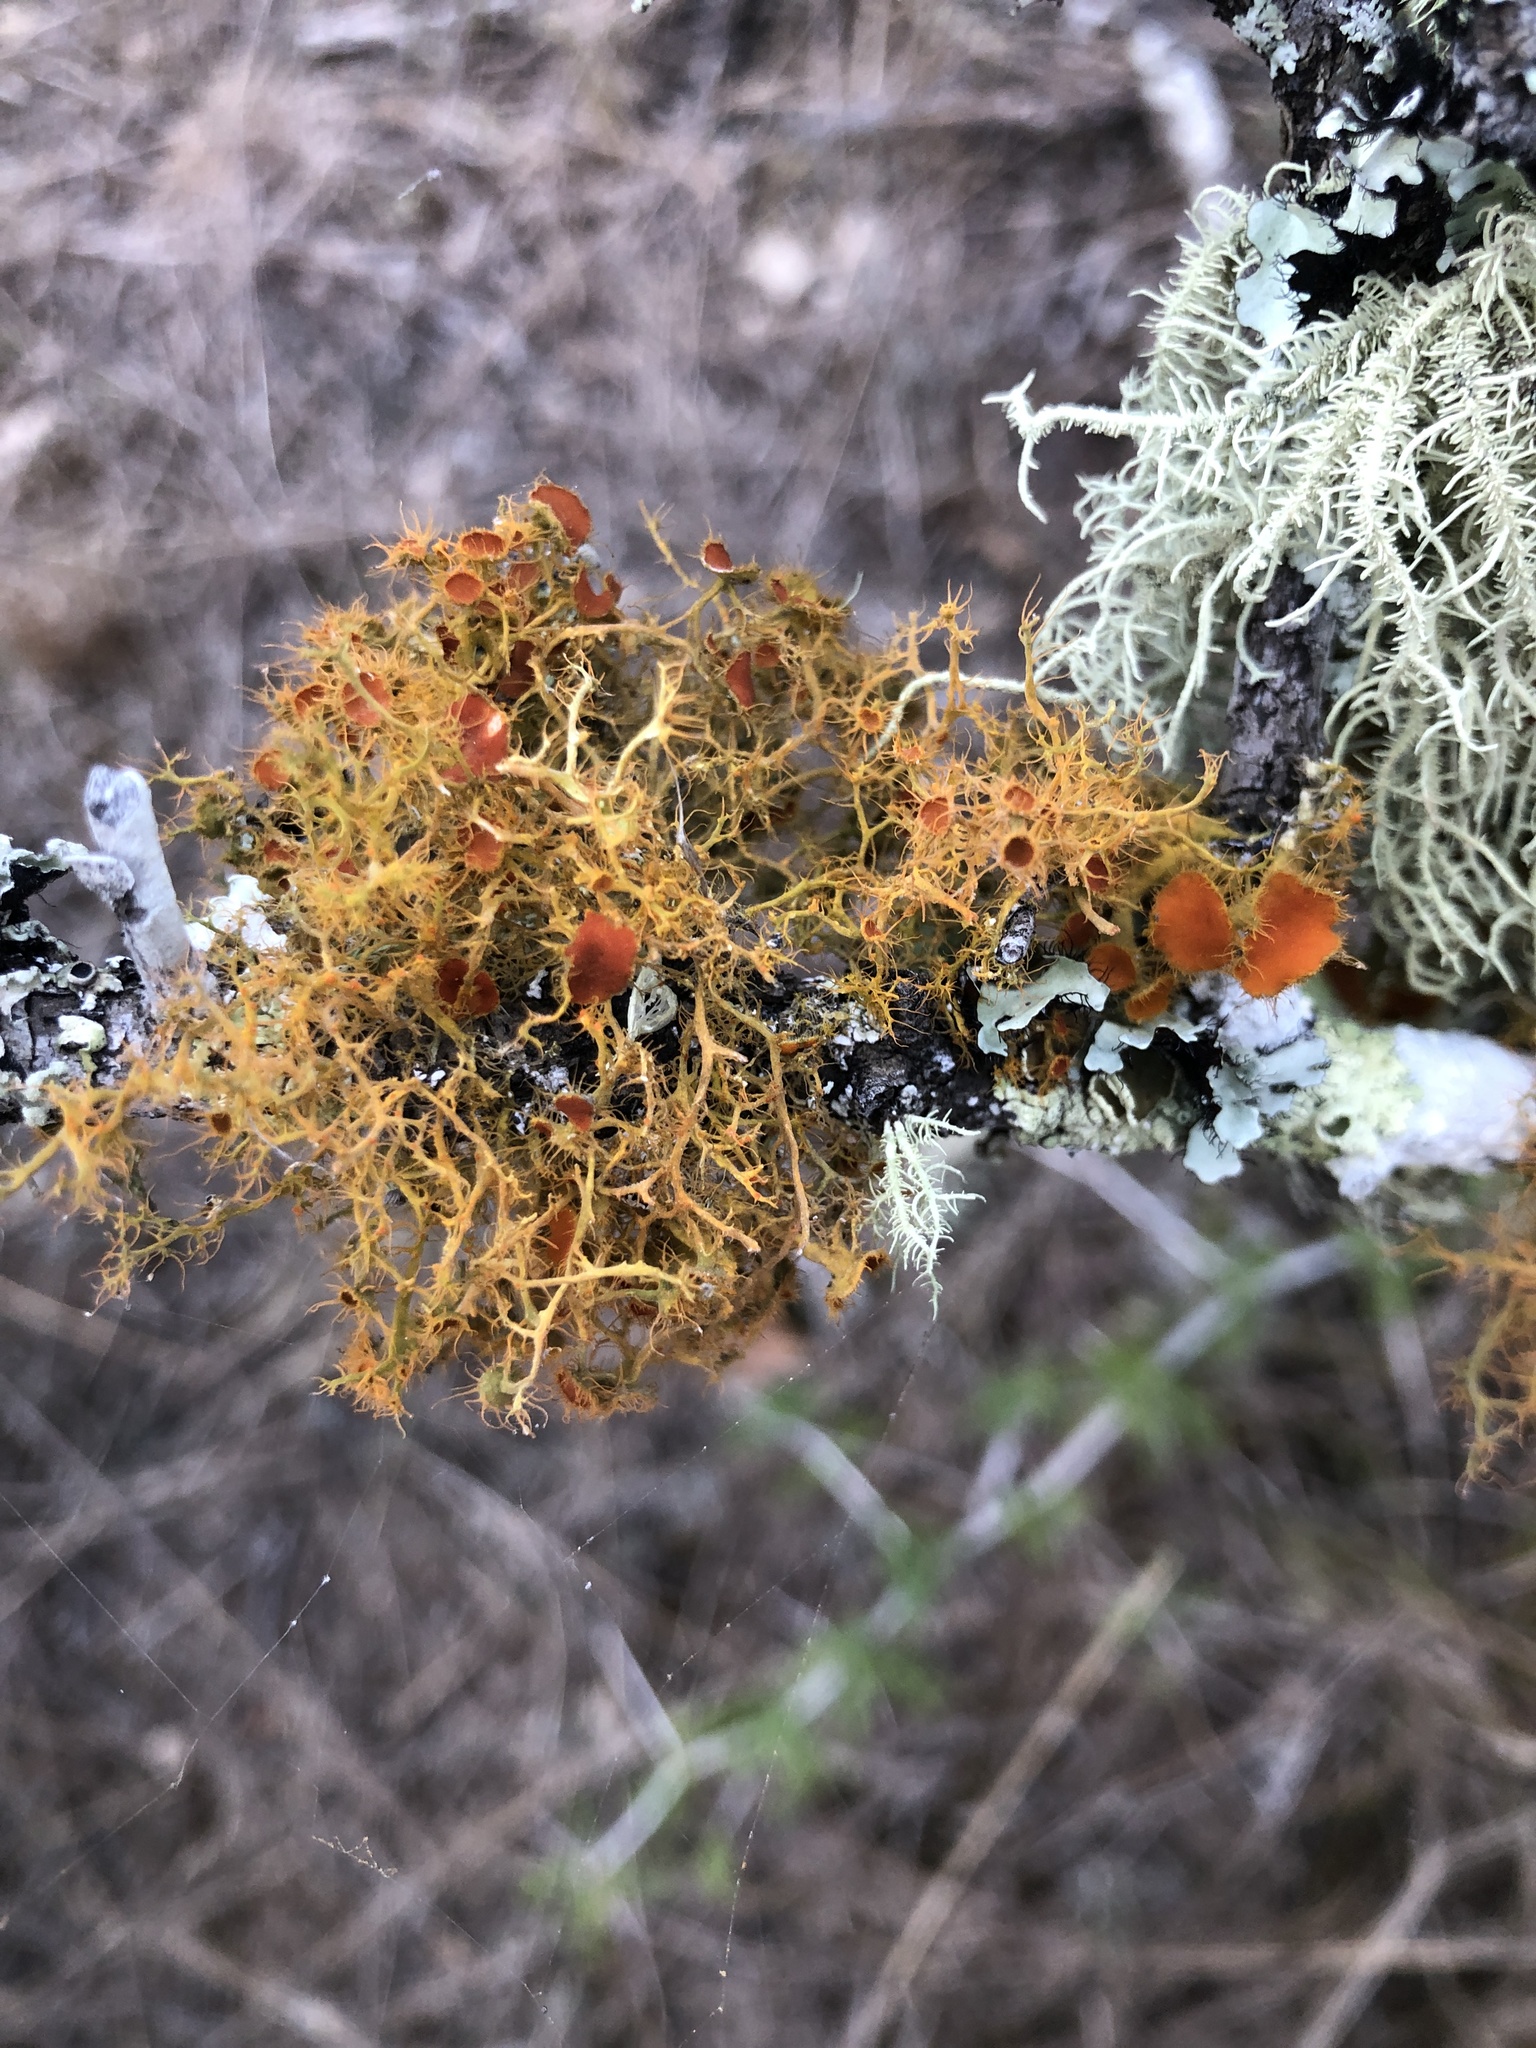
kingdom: Fungi
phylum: Ascomycota
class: Lecanoromycetes
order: Teloschistales
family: Teloschistaceae
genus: Teloschistes
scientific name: Teloschistes capensis
